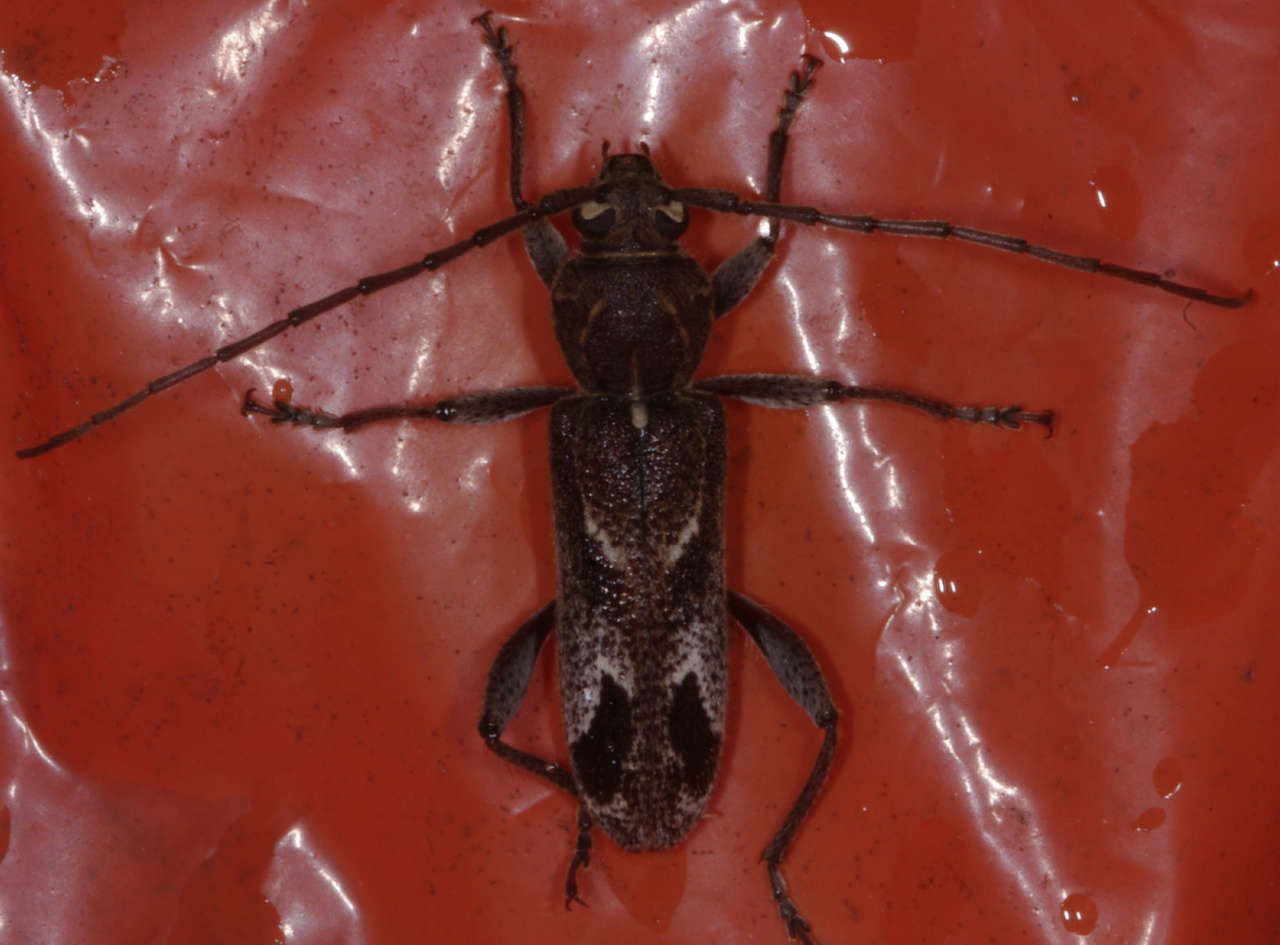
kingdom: Animalia
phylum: Arthropoda
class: Insecta
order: Coleoptera
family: Cerambycidae
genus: Phacodes
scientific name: Phacodes personatus
